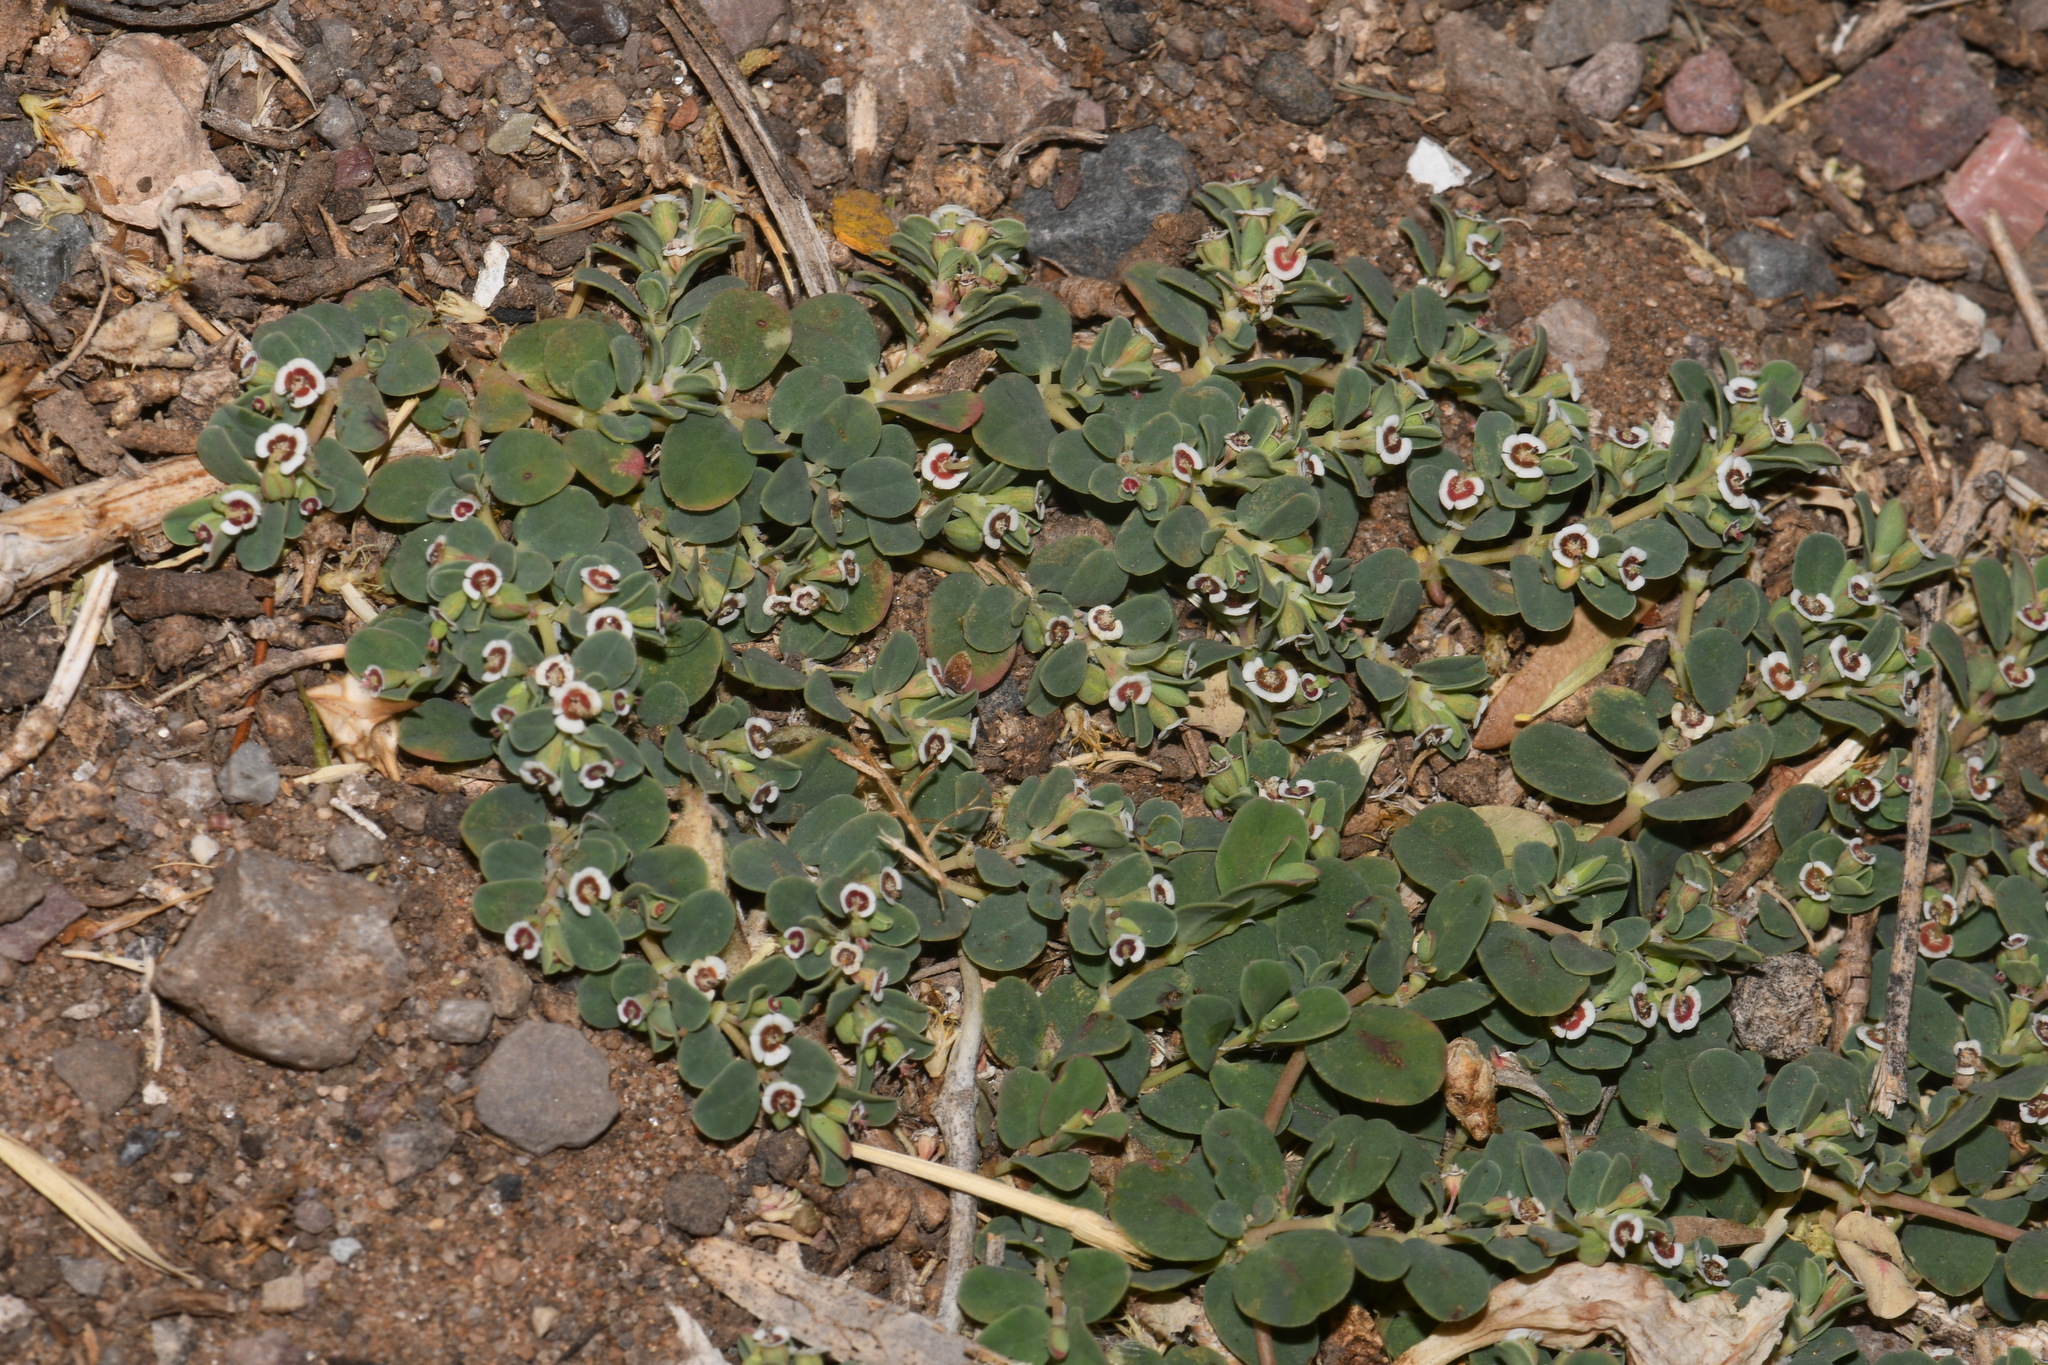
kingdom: Plantae
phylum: Tracheophyta
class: Magnoliopsida
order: Malpighiales
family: Euphorbiaceae
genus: Euphorbia
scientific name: Euphorbia albomarginata
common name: Whitemargin sandmat
